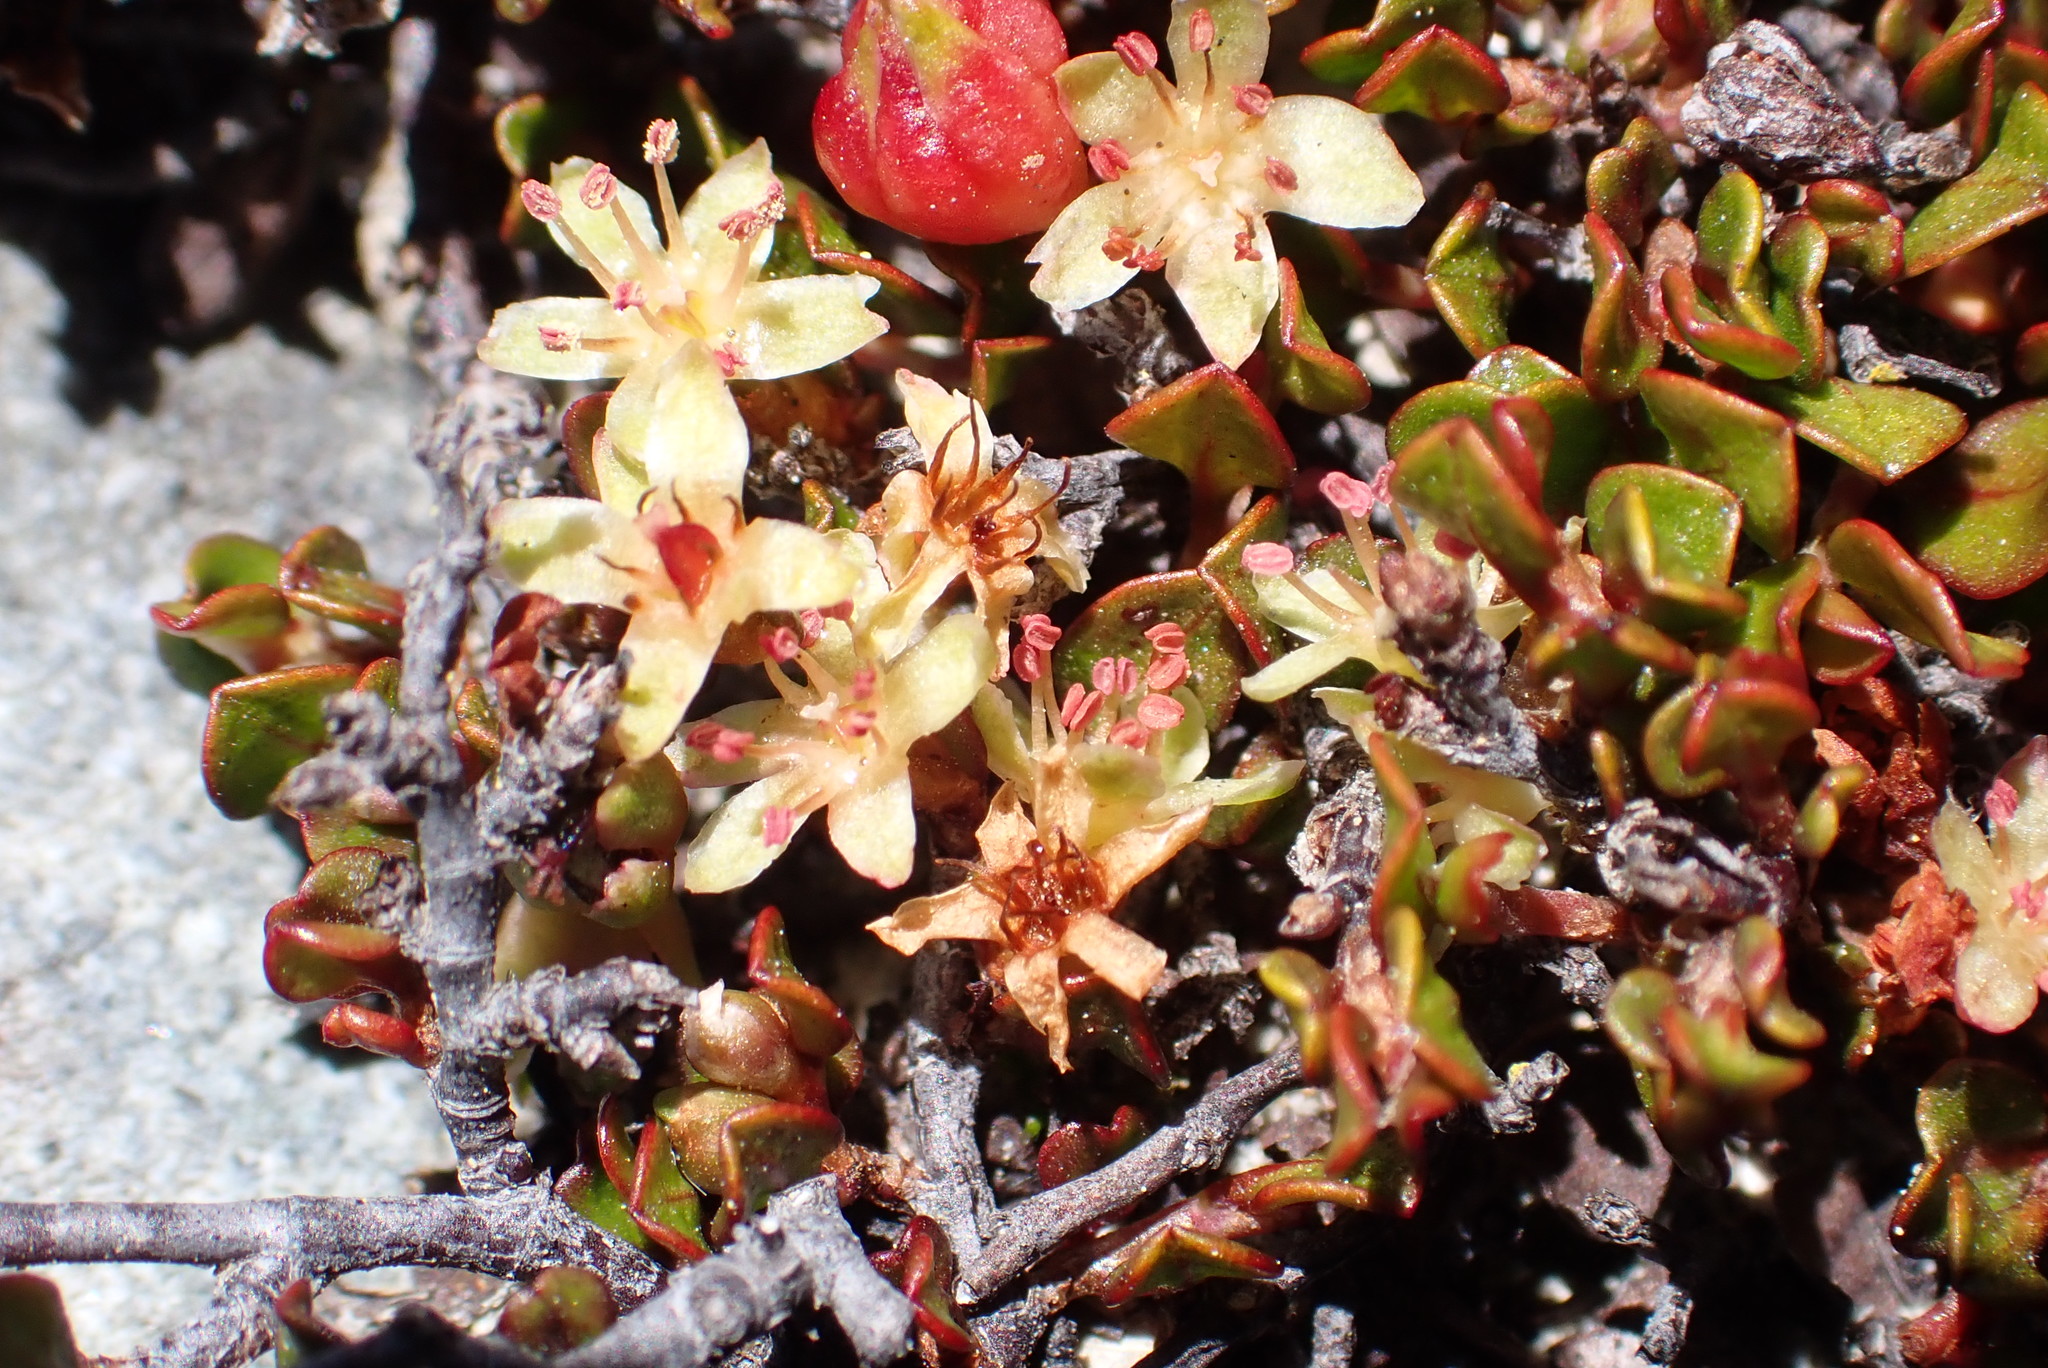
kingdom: Plantae
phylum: Tracheophyta
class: Magnoliopsida
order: Caryophyllales
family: Polygonaceae
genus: Muehlenbeckia
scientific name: Muehlenbeckia axillaris
